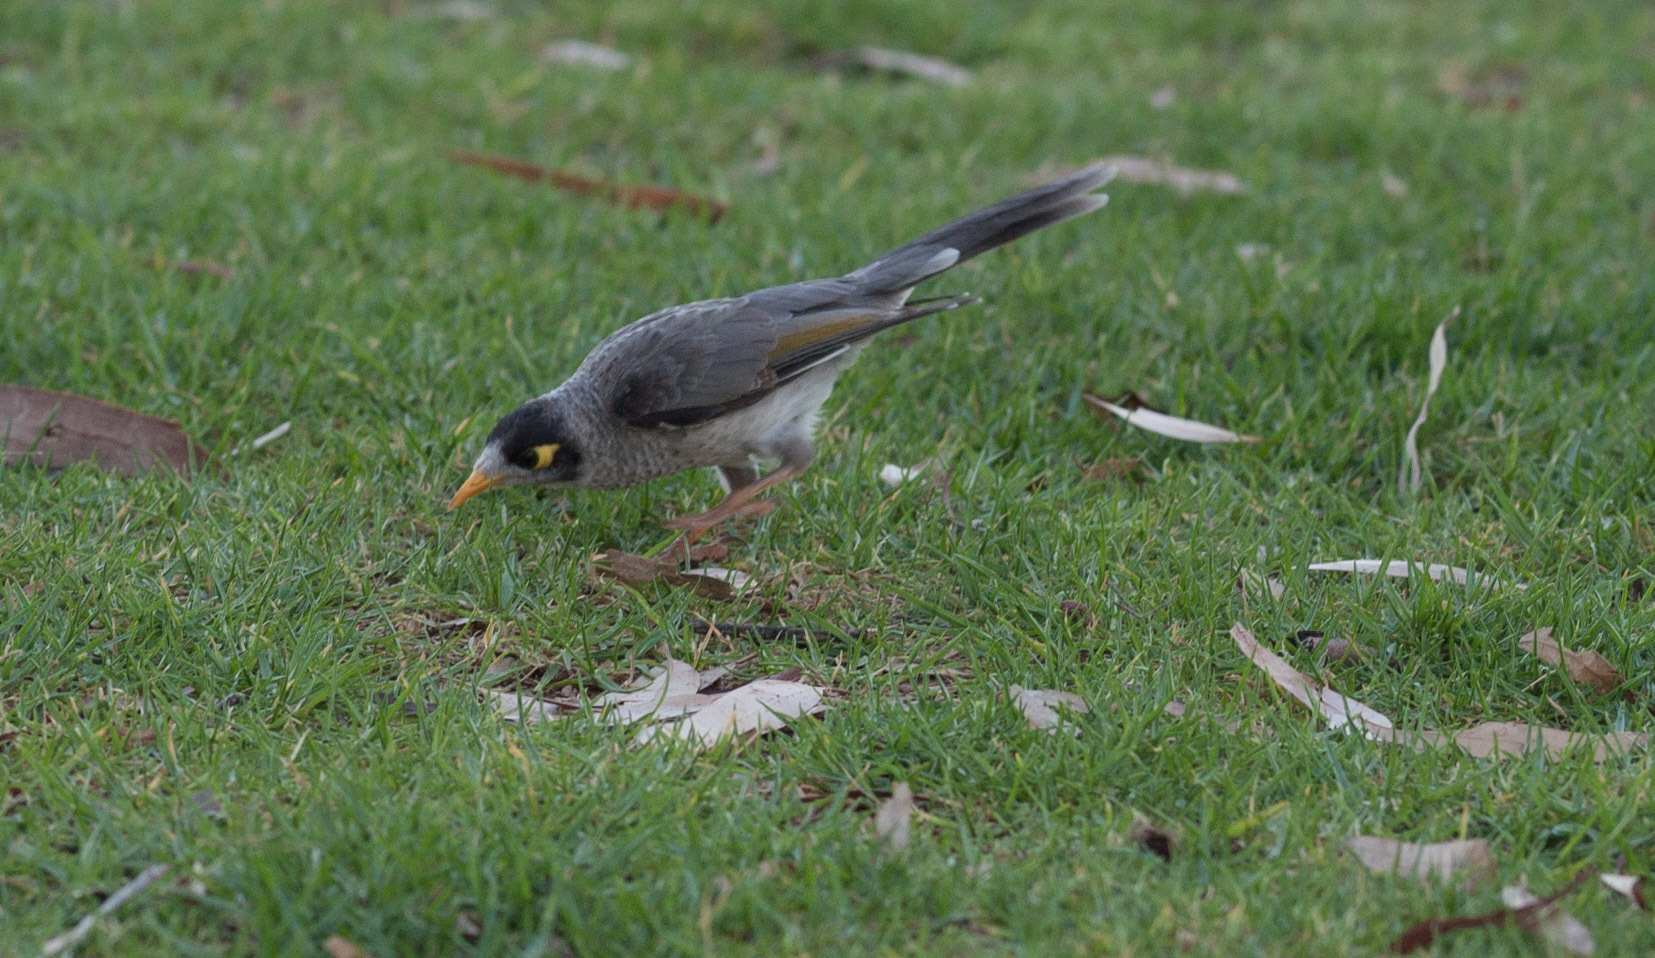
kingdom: Animalia
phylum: Chordata
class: Aves
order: Passeriformes
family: Meliphagidae
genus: Manorina
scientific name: Manorina melanocephala
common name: Noisy miner
